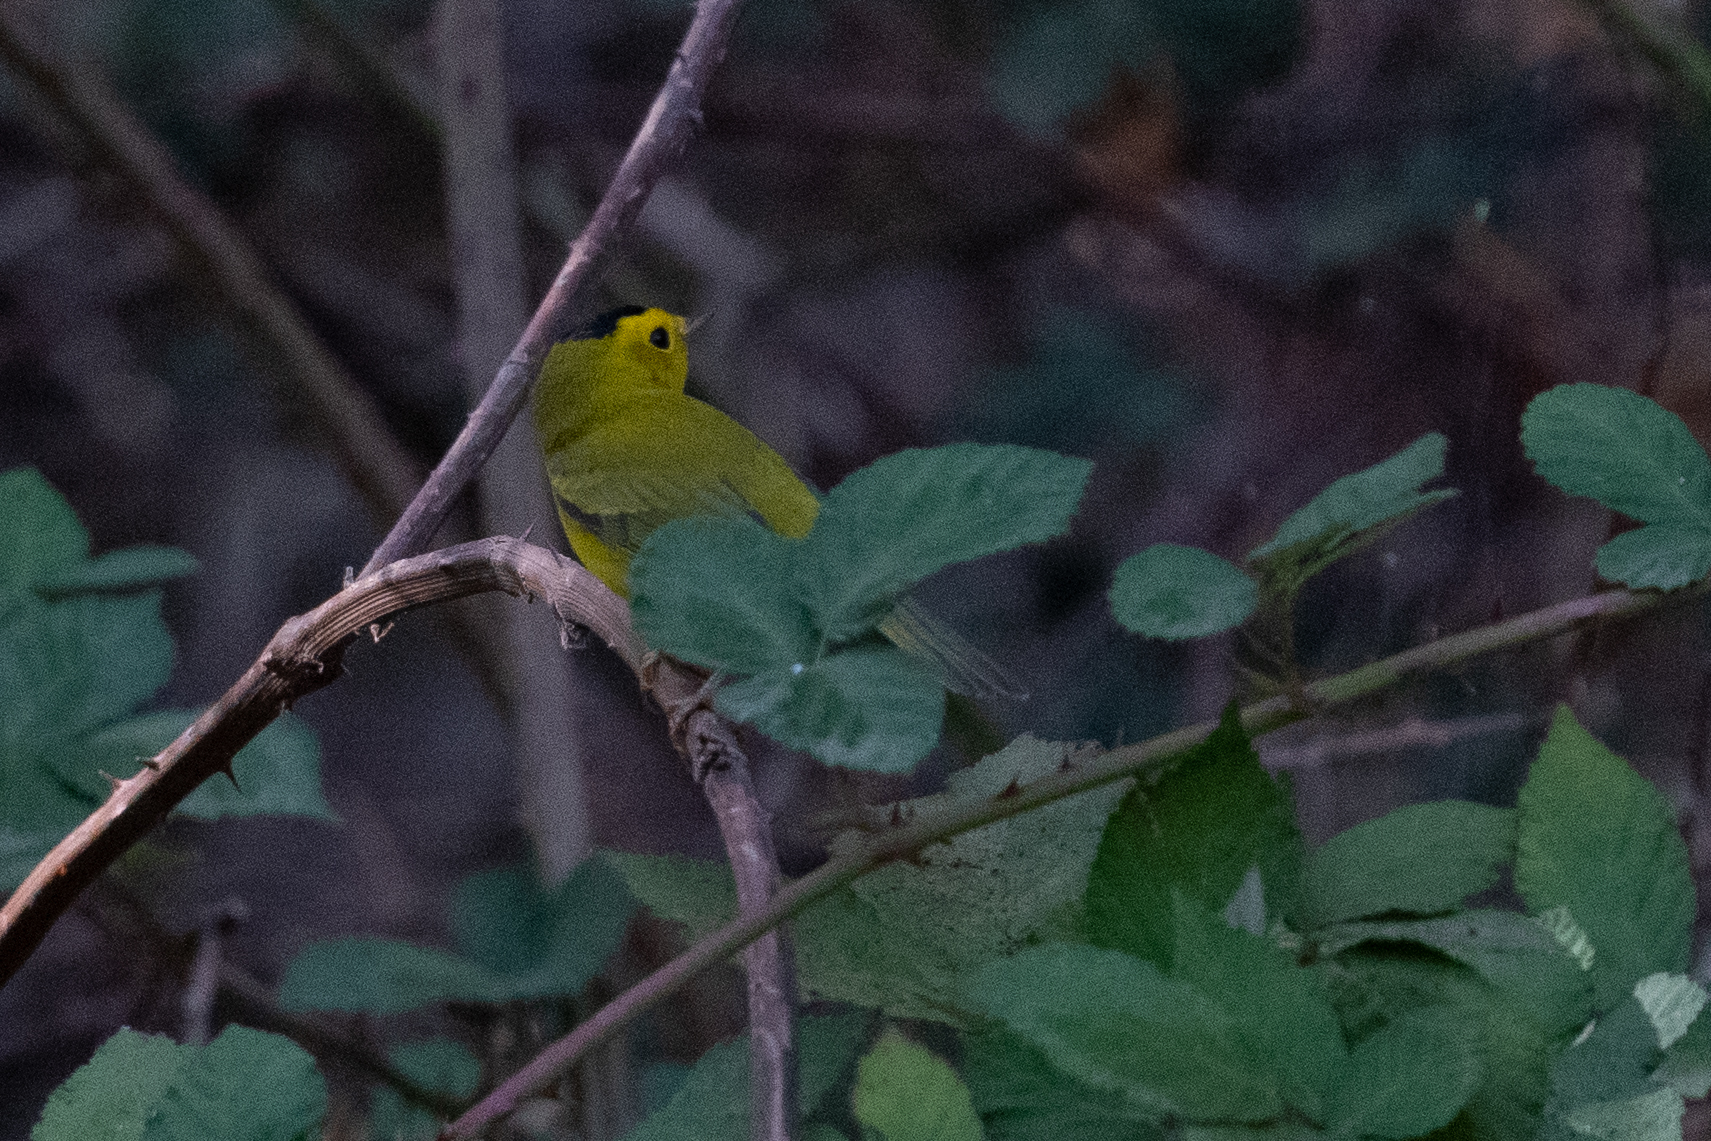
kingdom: Animalia
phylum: Chordata
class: Aves
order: Passeriformes
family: Parulidae
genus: Cardellina
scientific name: Cardellina pusilla
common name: Wilson's warbler
